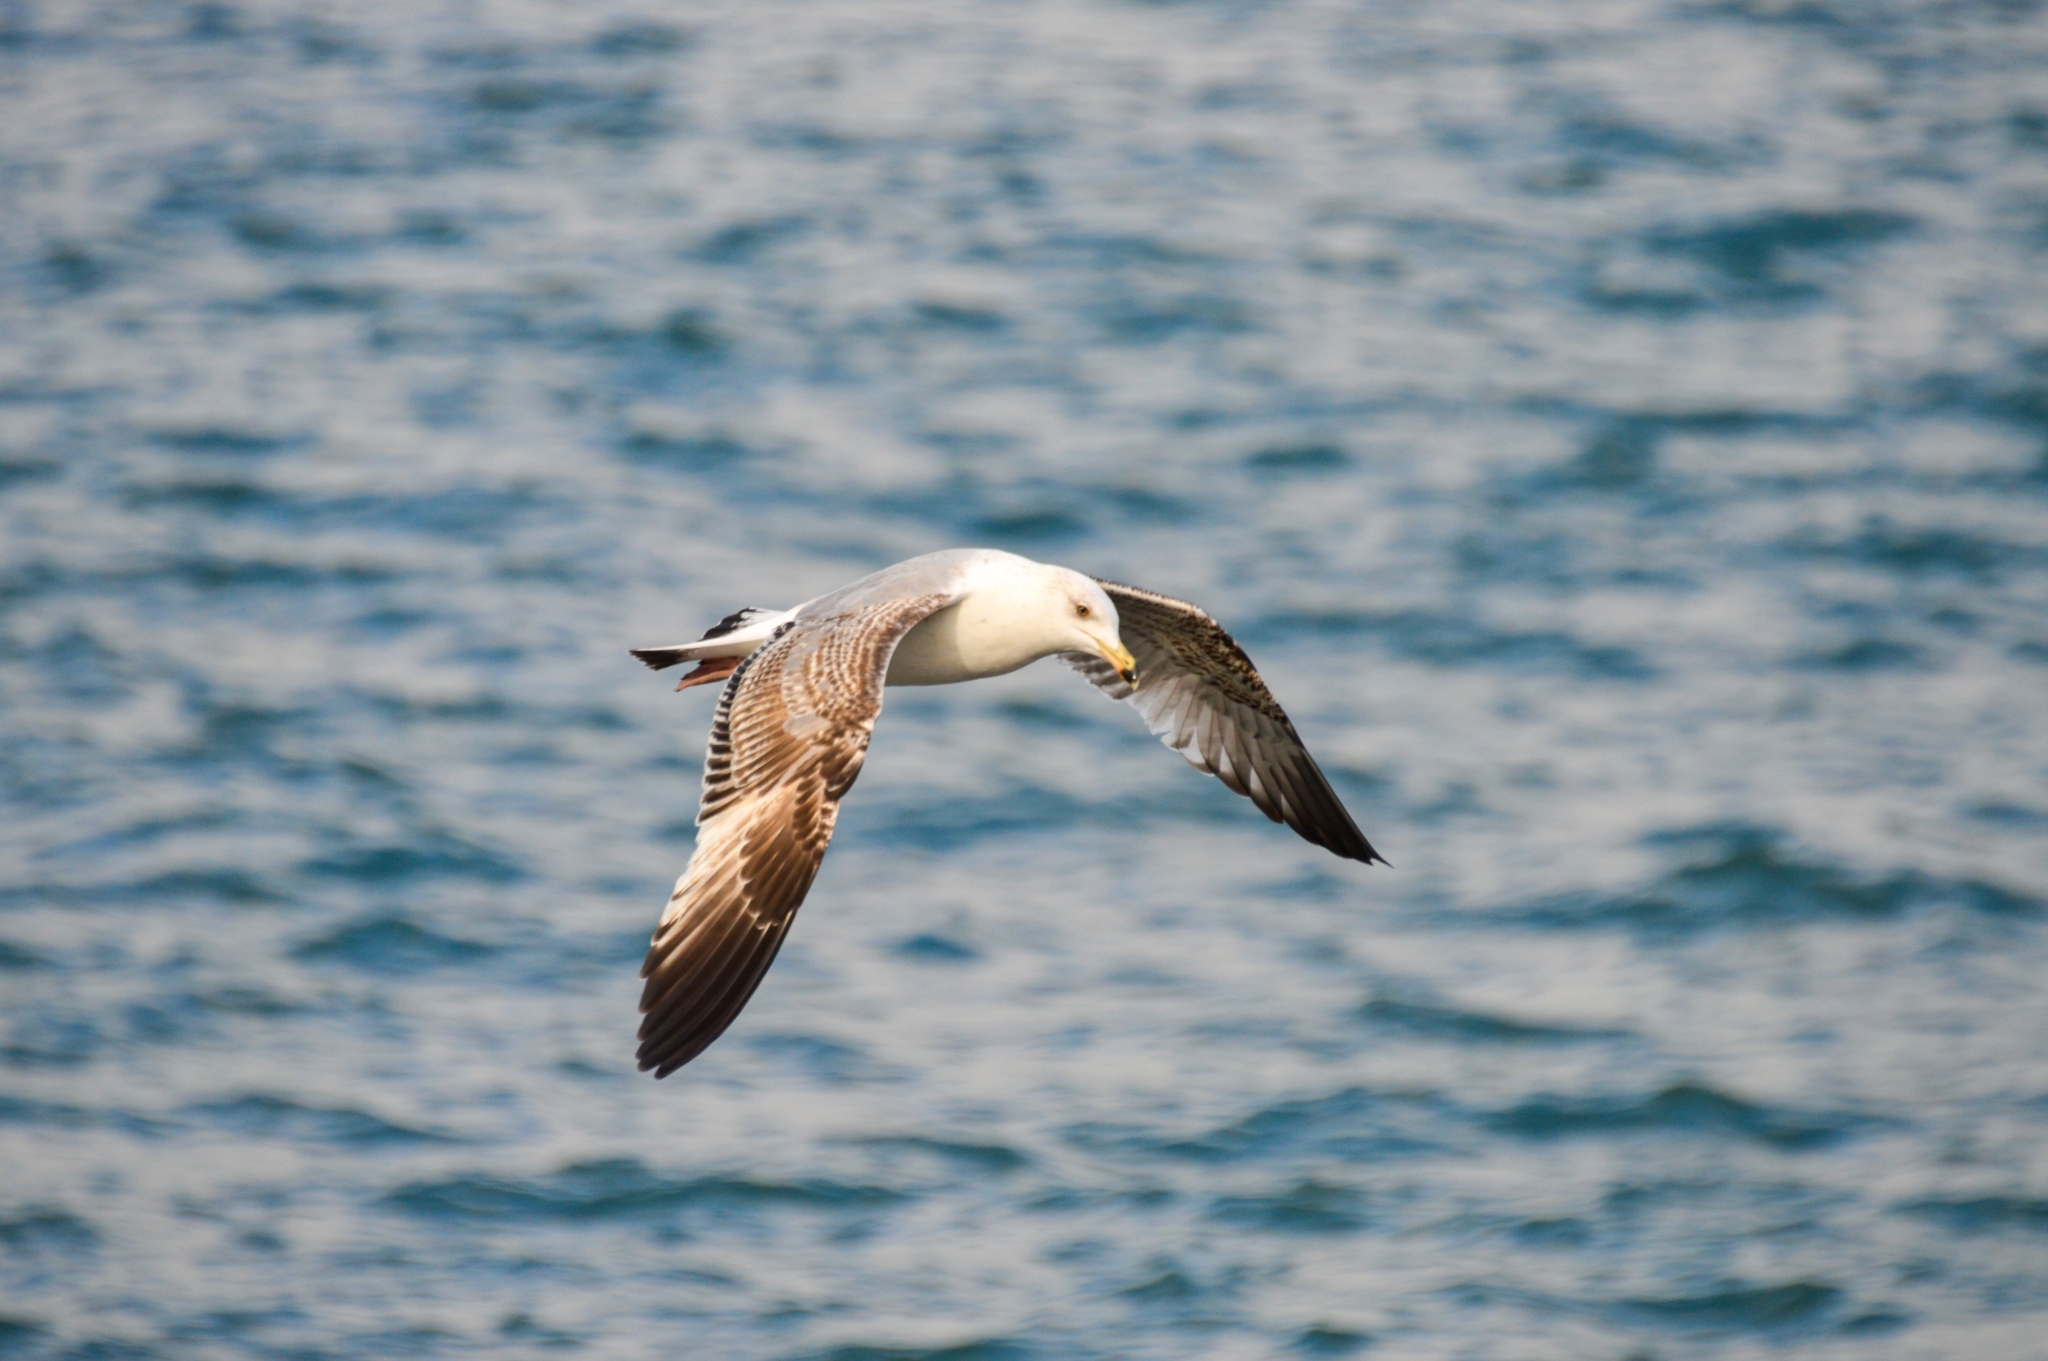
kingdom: Animalia
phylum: Chordata
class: Aves
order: Charadriiformes
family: Laridae
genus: Larus
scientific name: Larus michahellis
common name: Yellow-legged gull
